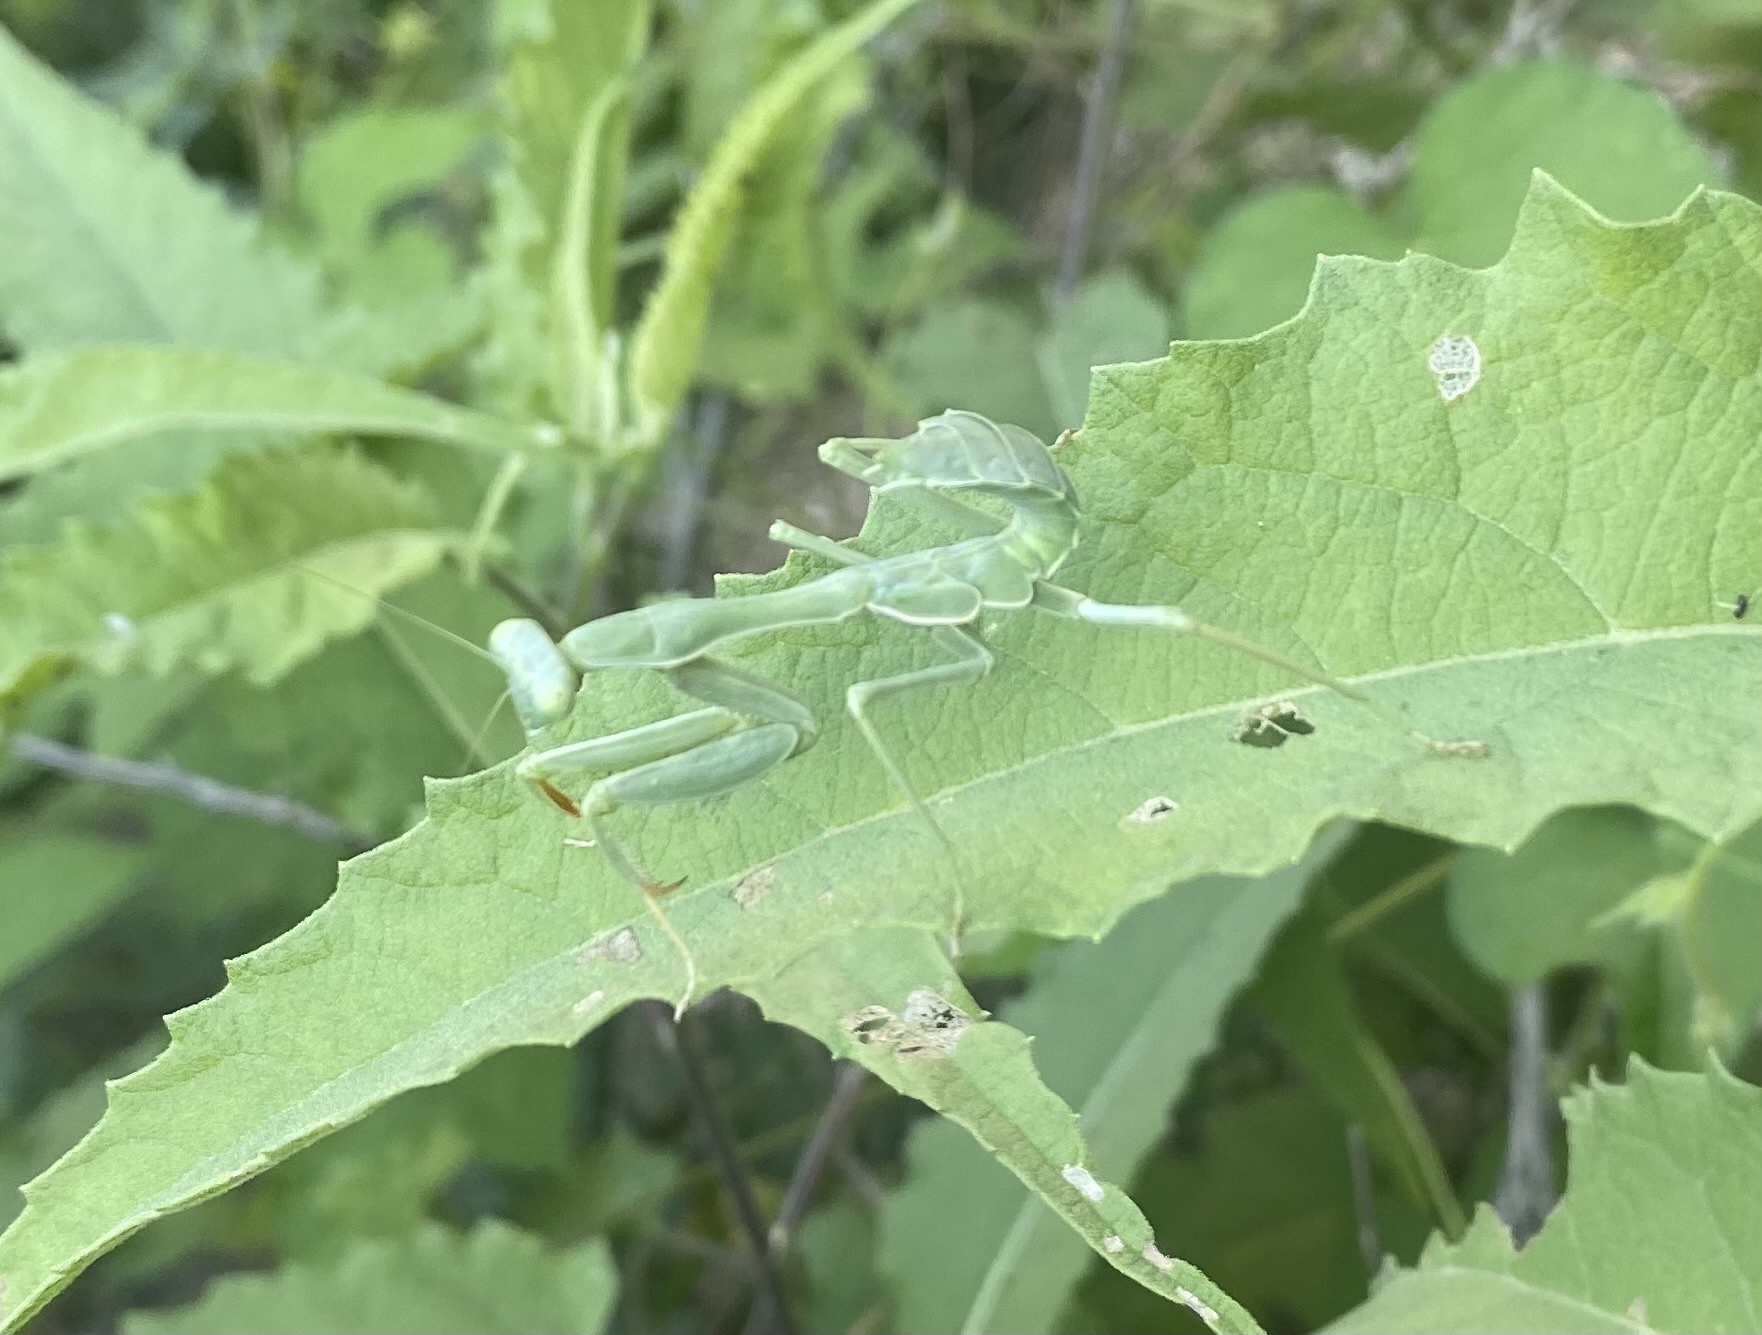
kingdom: Animalia
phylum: Arthropoda
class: Insecta
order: Mantodea
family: Mantidae
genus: Stagmomantis
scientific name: Stagmomantis limbata
